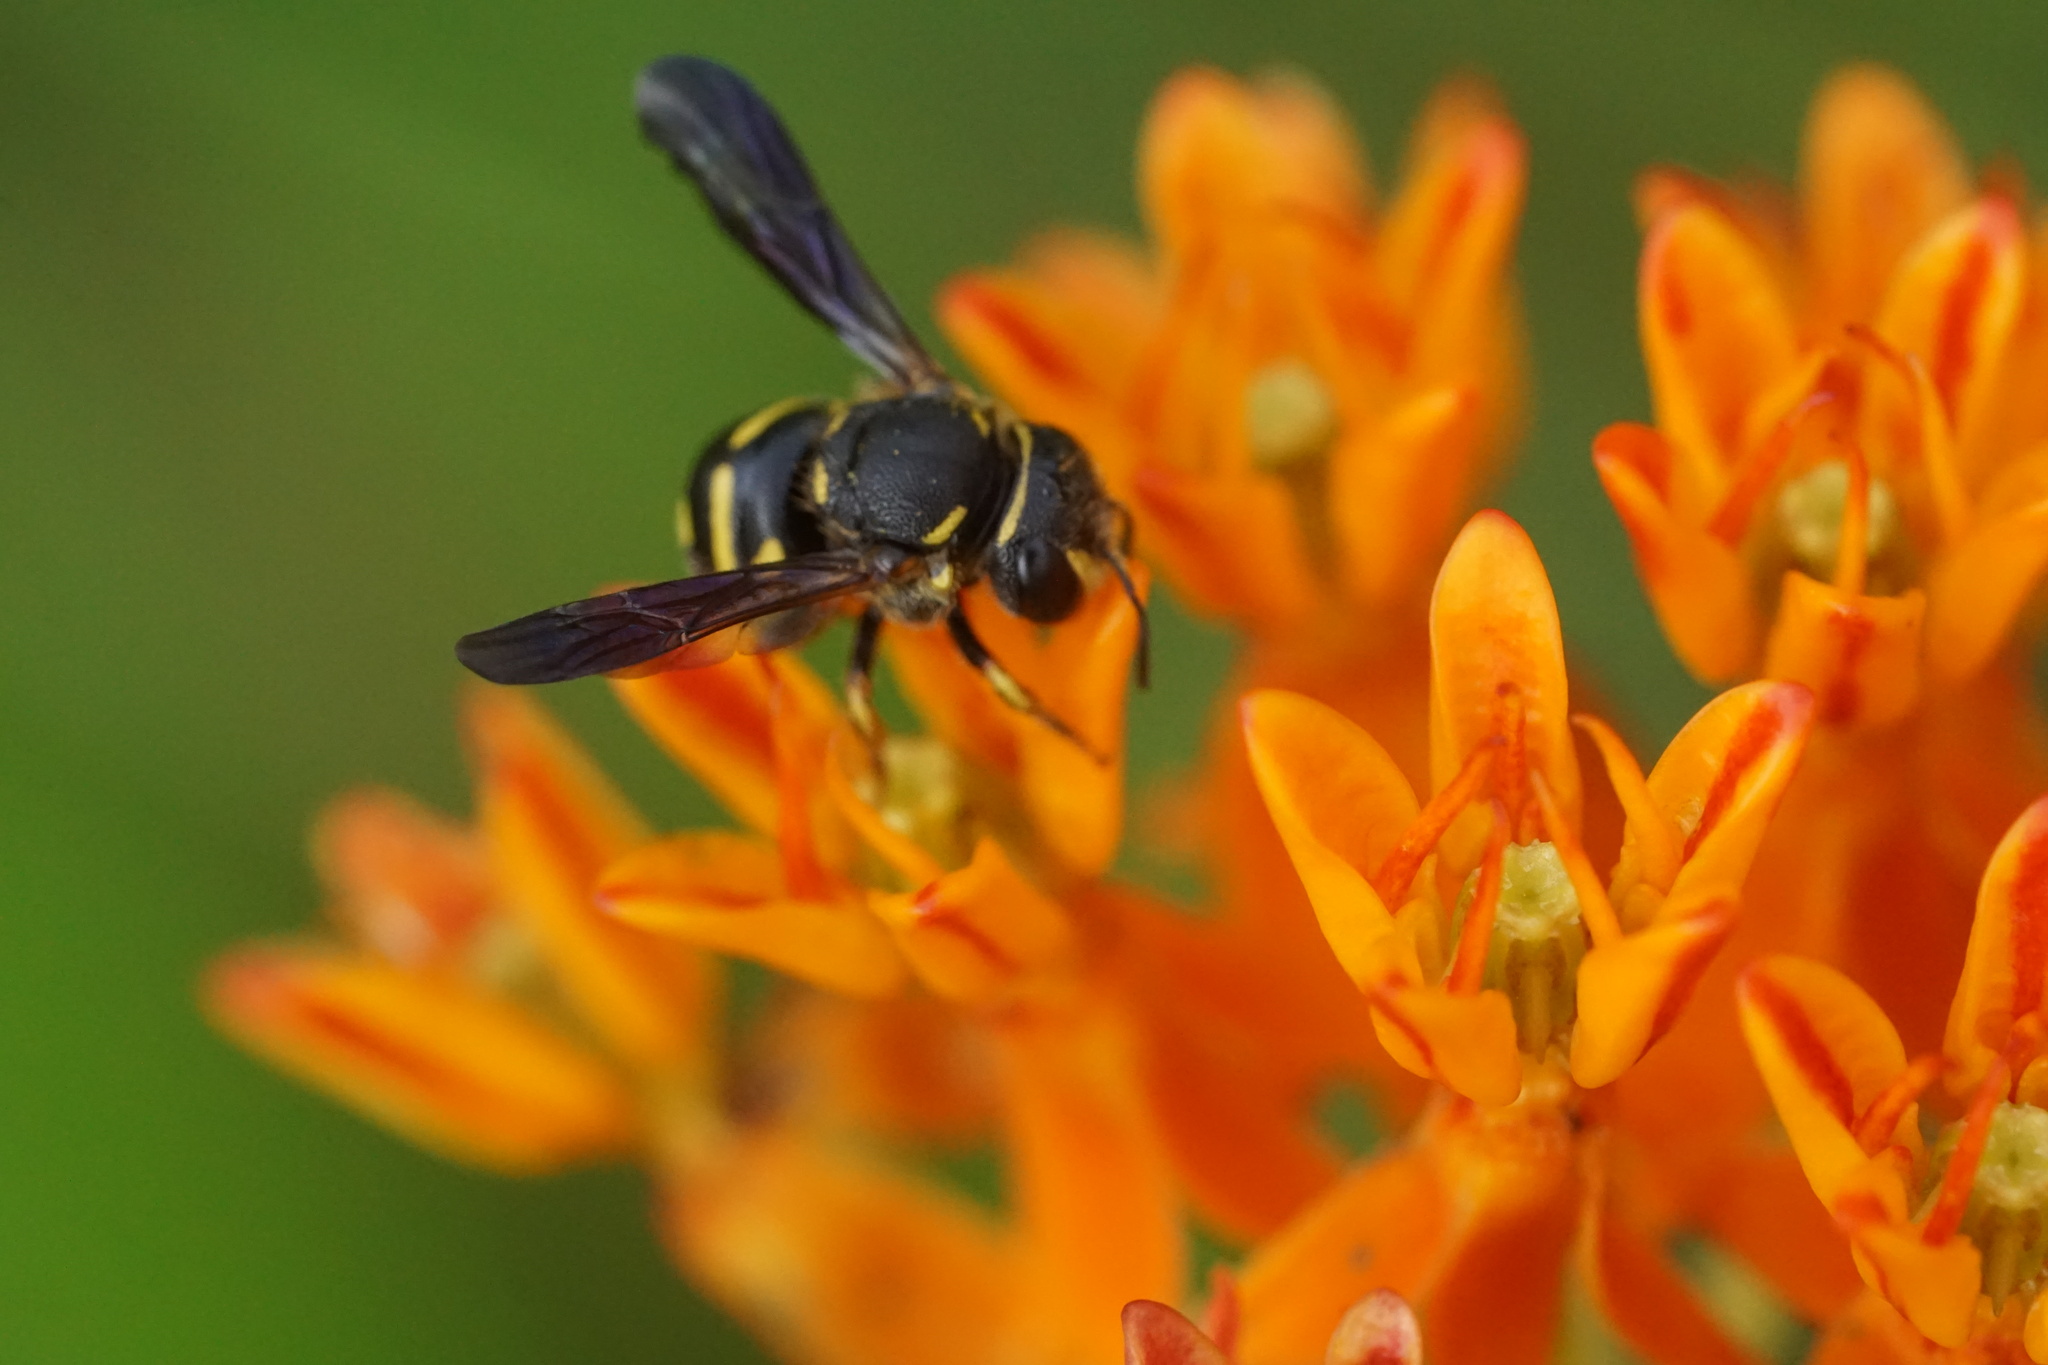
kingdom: Animalia
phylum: Arthropoda
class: Insecta
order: Hymenoptera
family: Megachilidae
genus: Anthidiellum
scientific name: Anthidiellum notatum
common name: Northern rotund-resin bee
